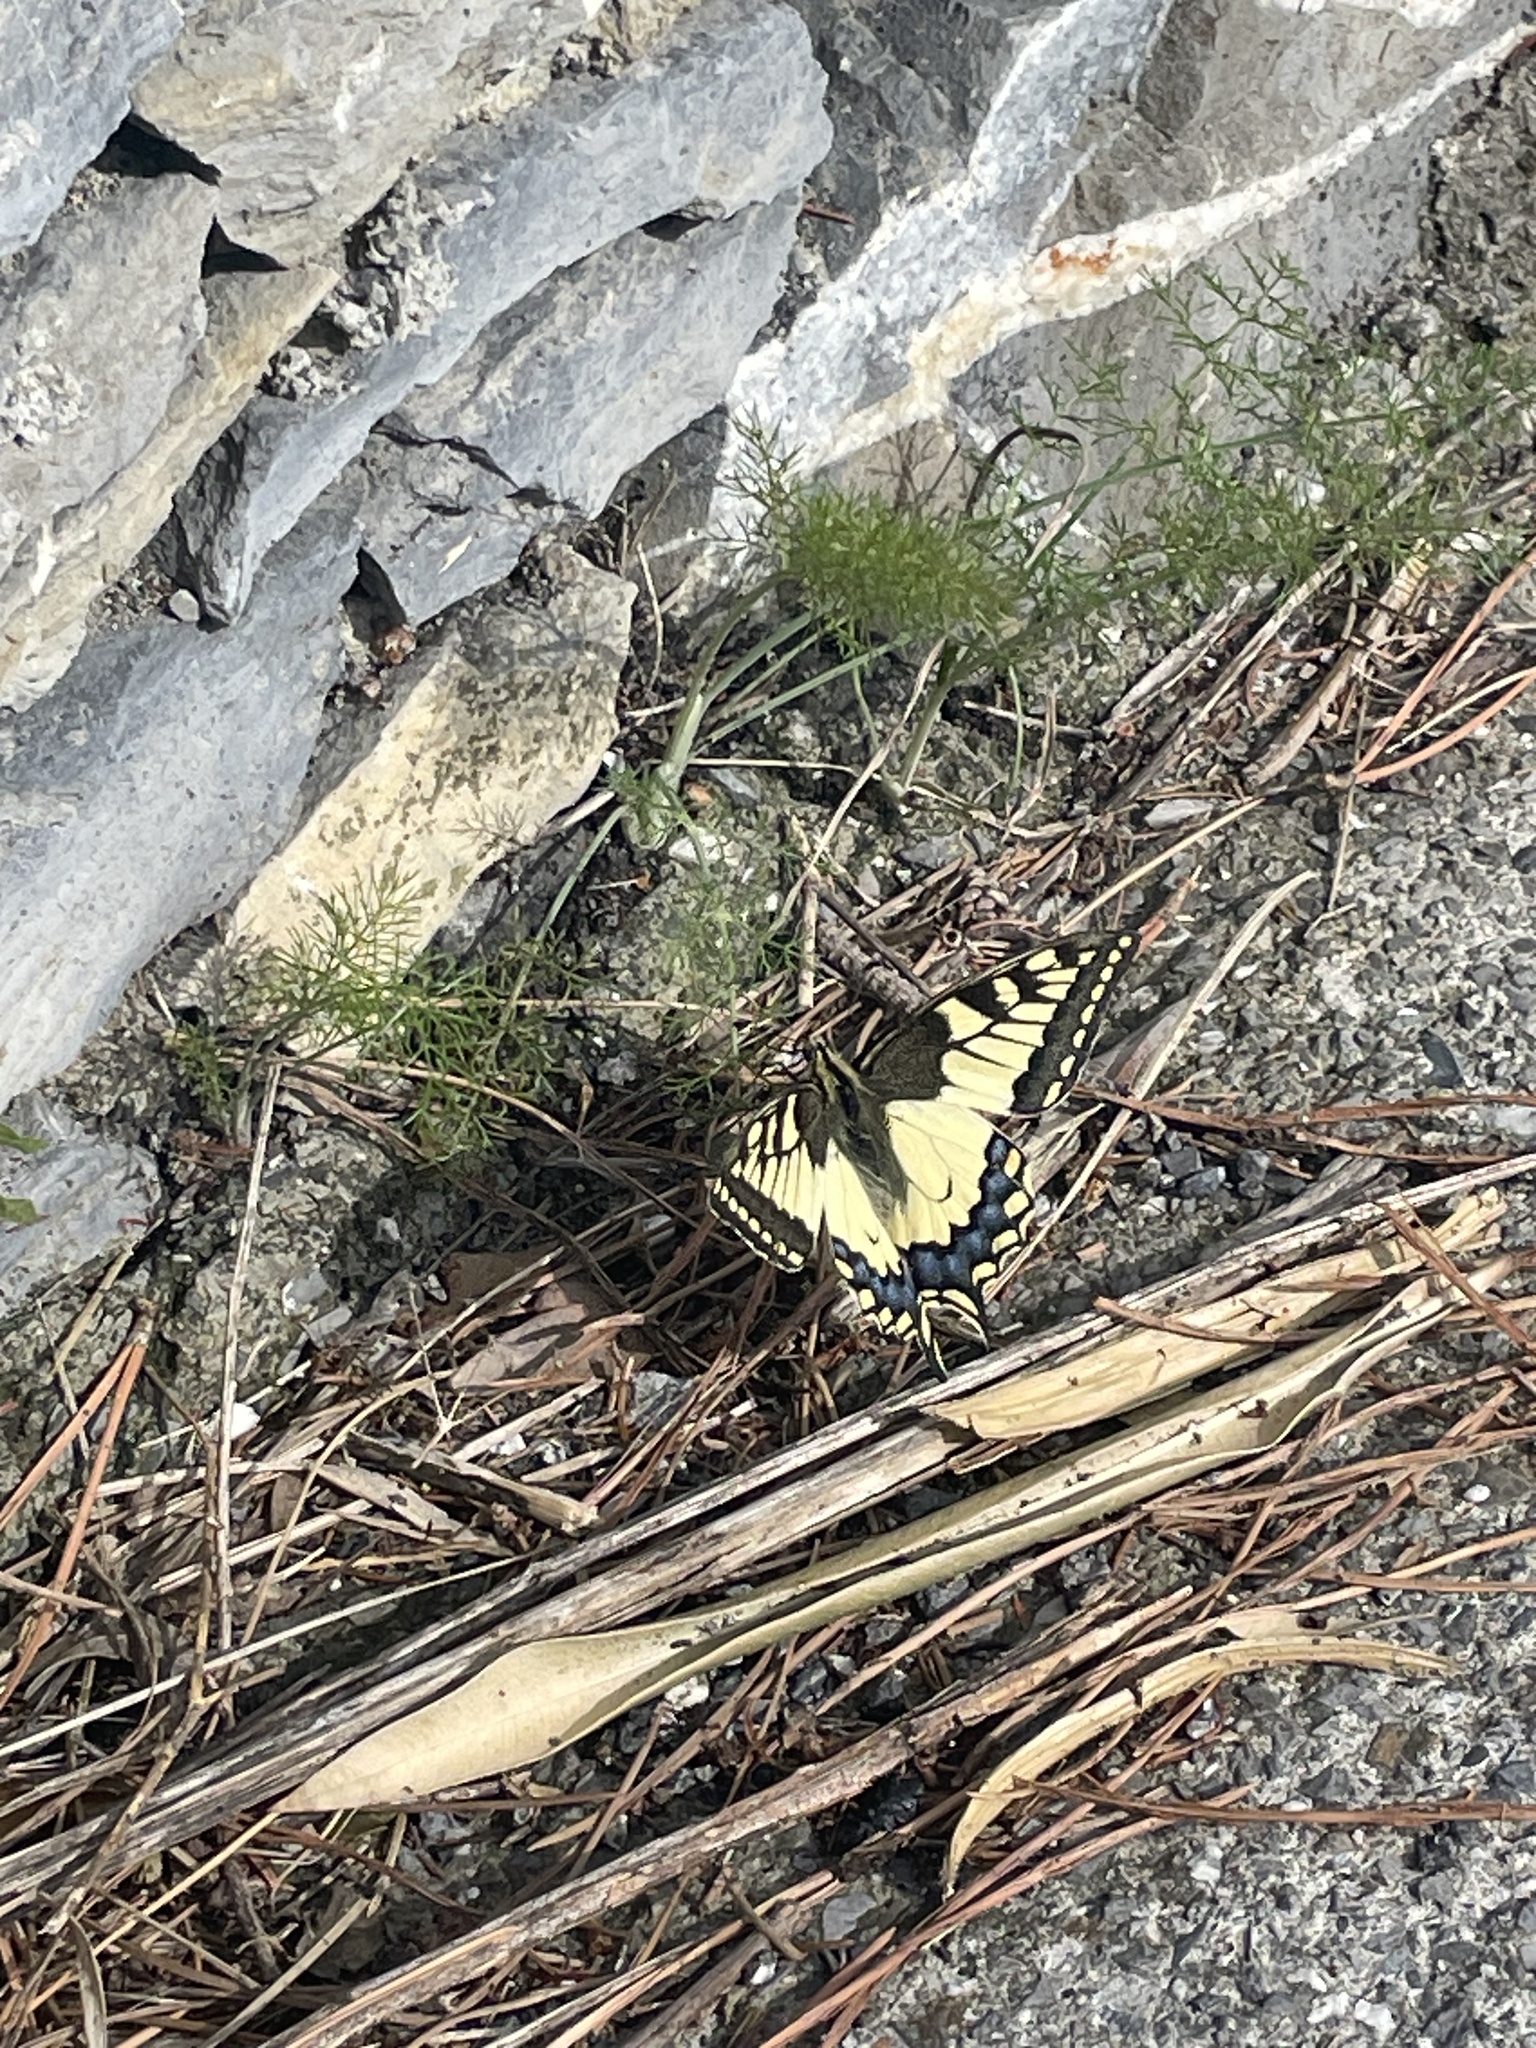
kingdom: Animalia
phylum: Arthropoda
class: Insecta
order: Lepidoptera
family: Papilionidae
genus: Papilio
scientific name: Papilio machaon
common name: Swallowtail
